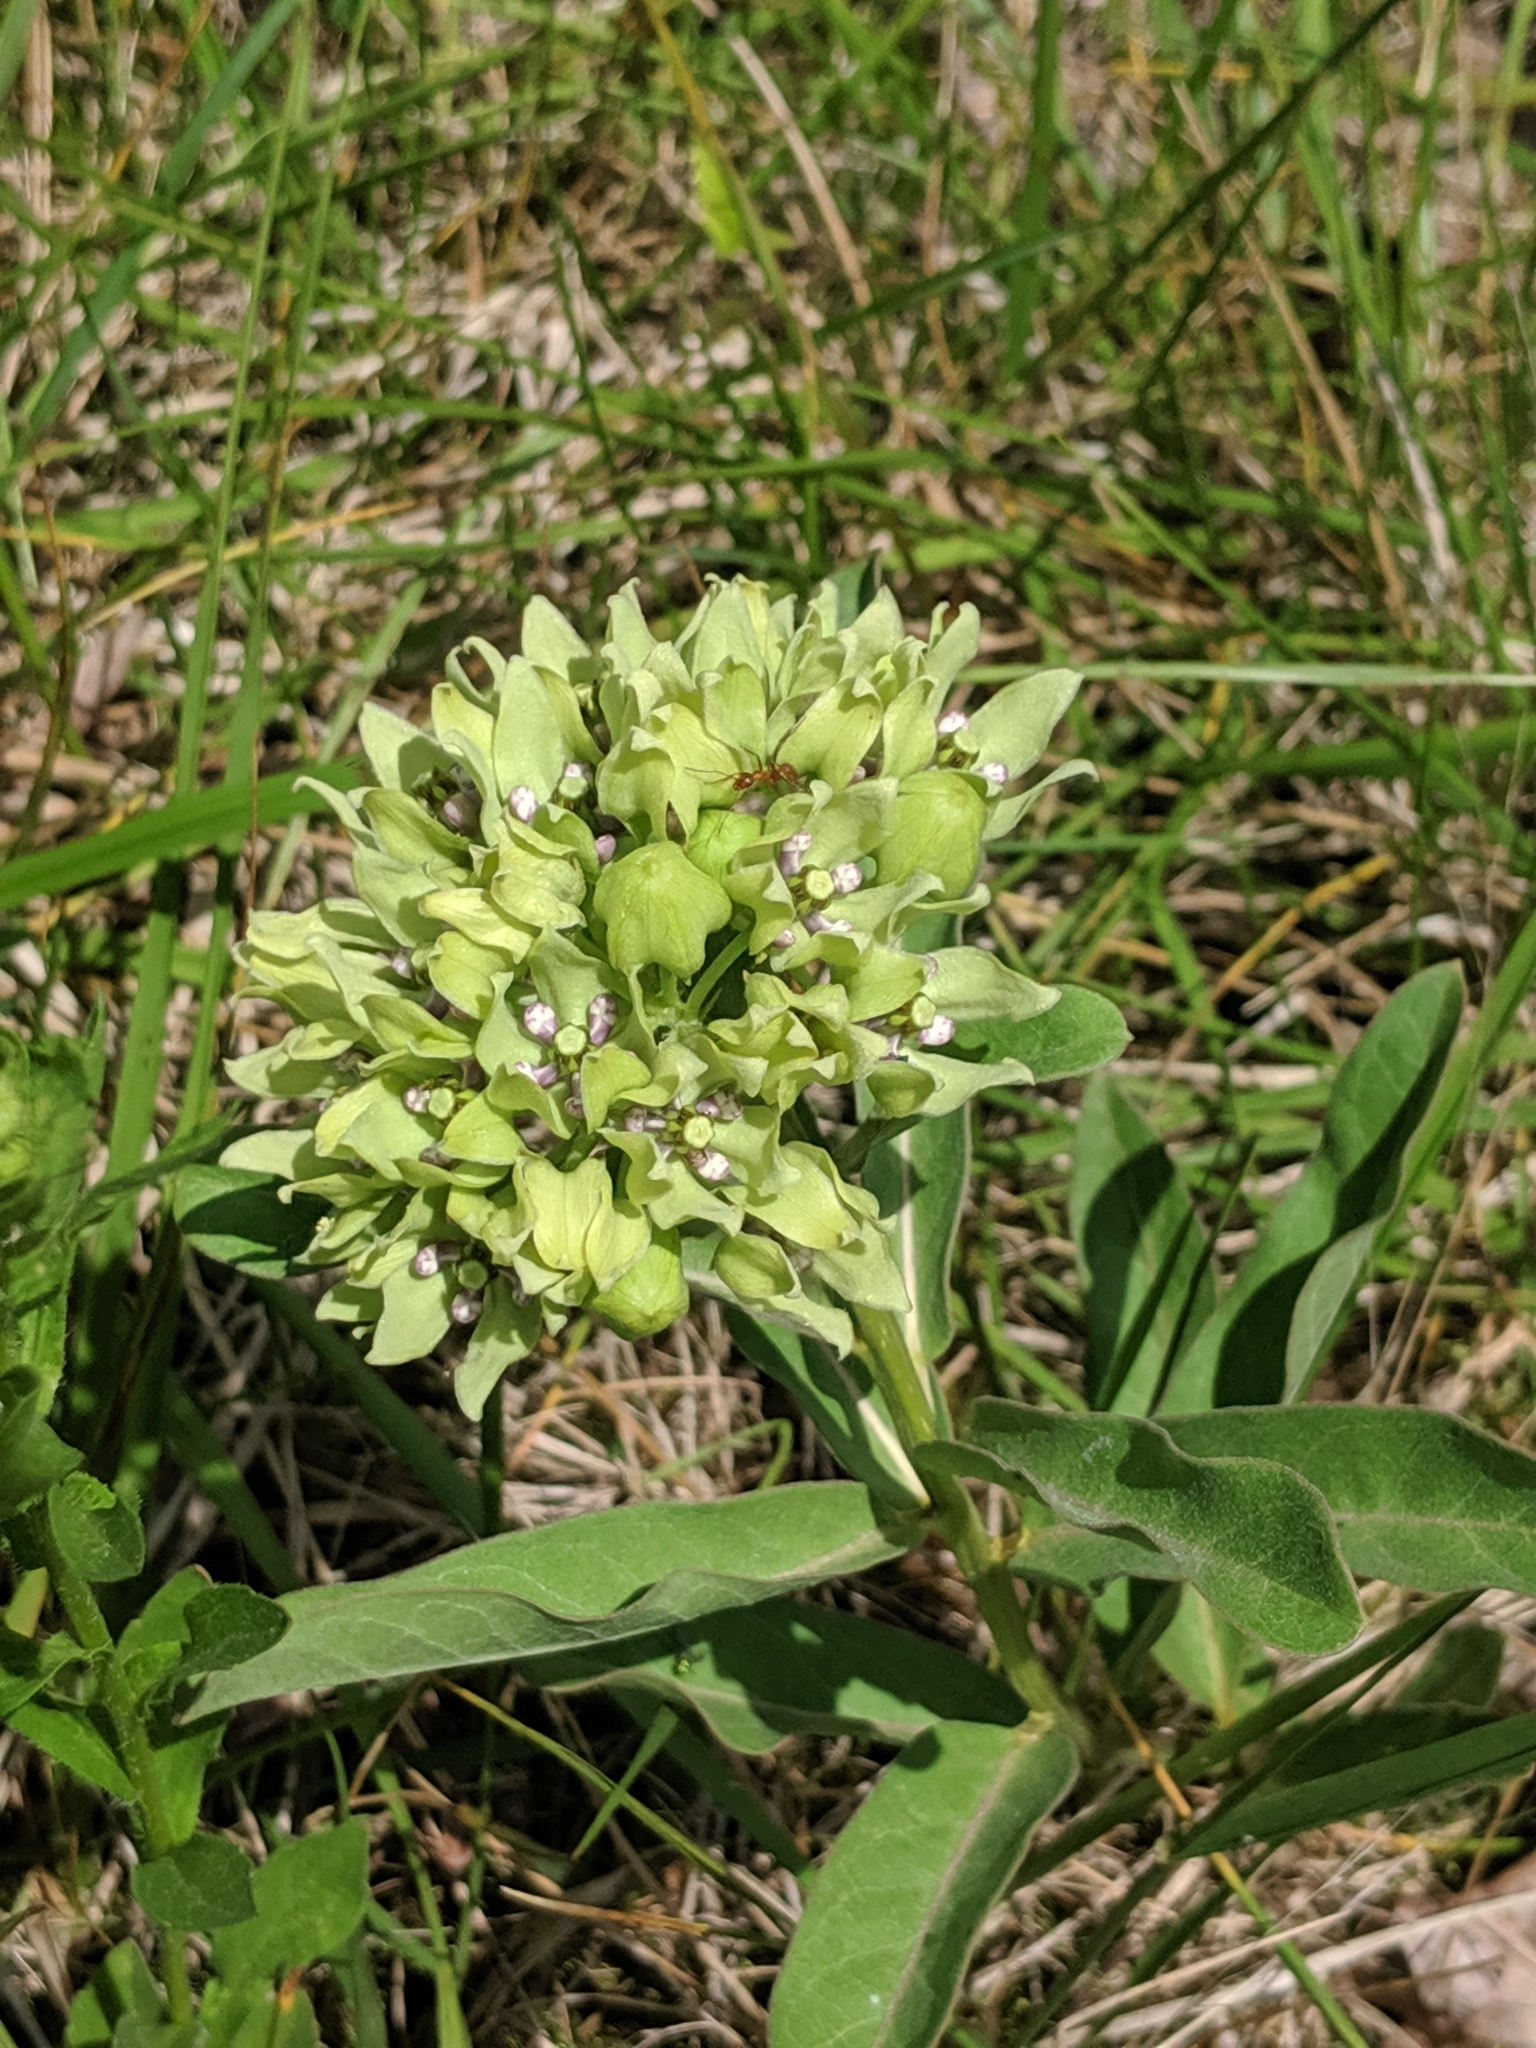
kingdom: Plantae
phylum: Tracheophyta
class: Magnoliopsida
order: Gentianales
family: Apocynaceae
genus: Asclepias
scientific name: Asclepias viridis
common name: Antelope-horns
